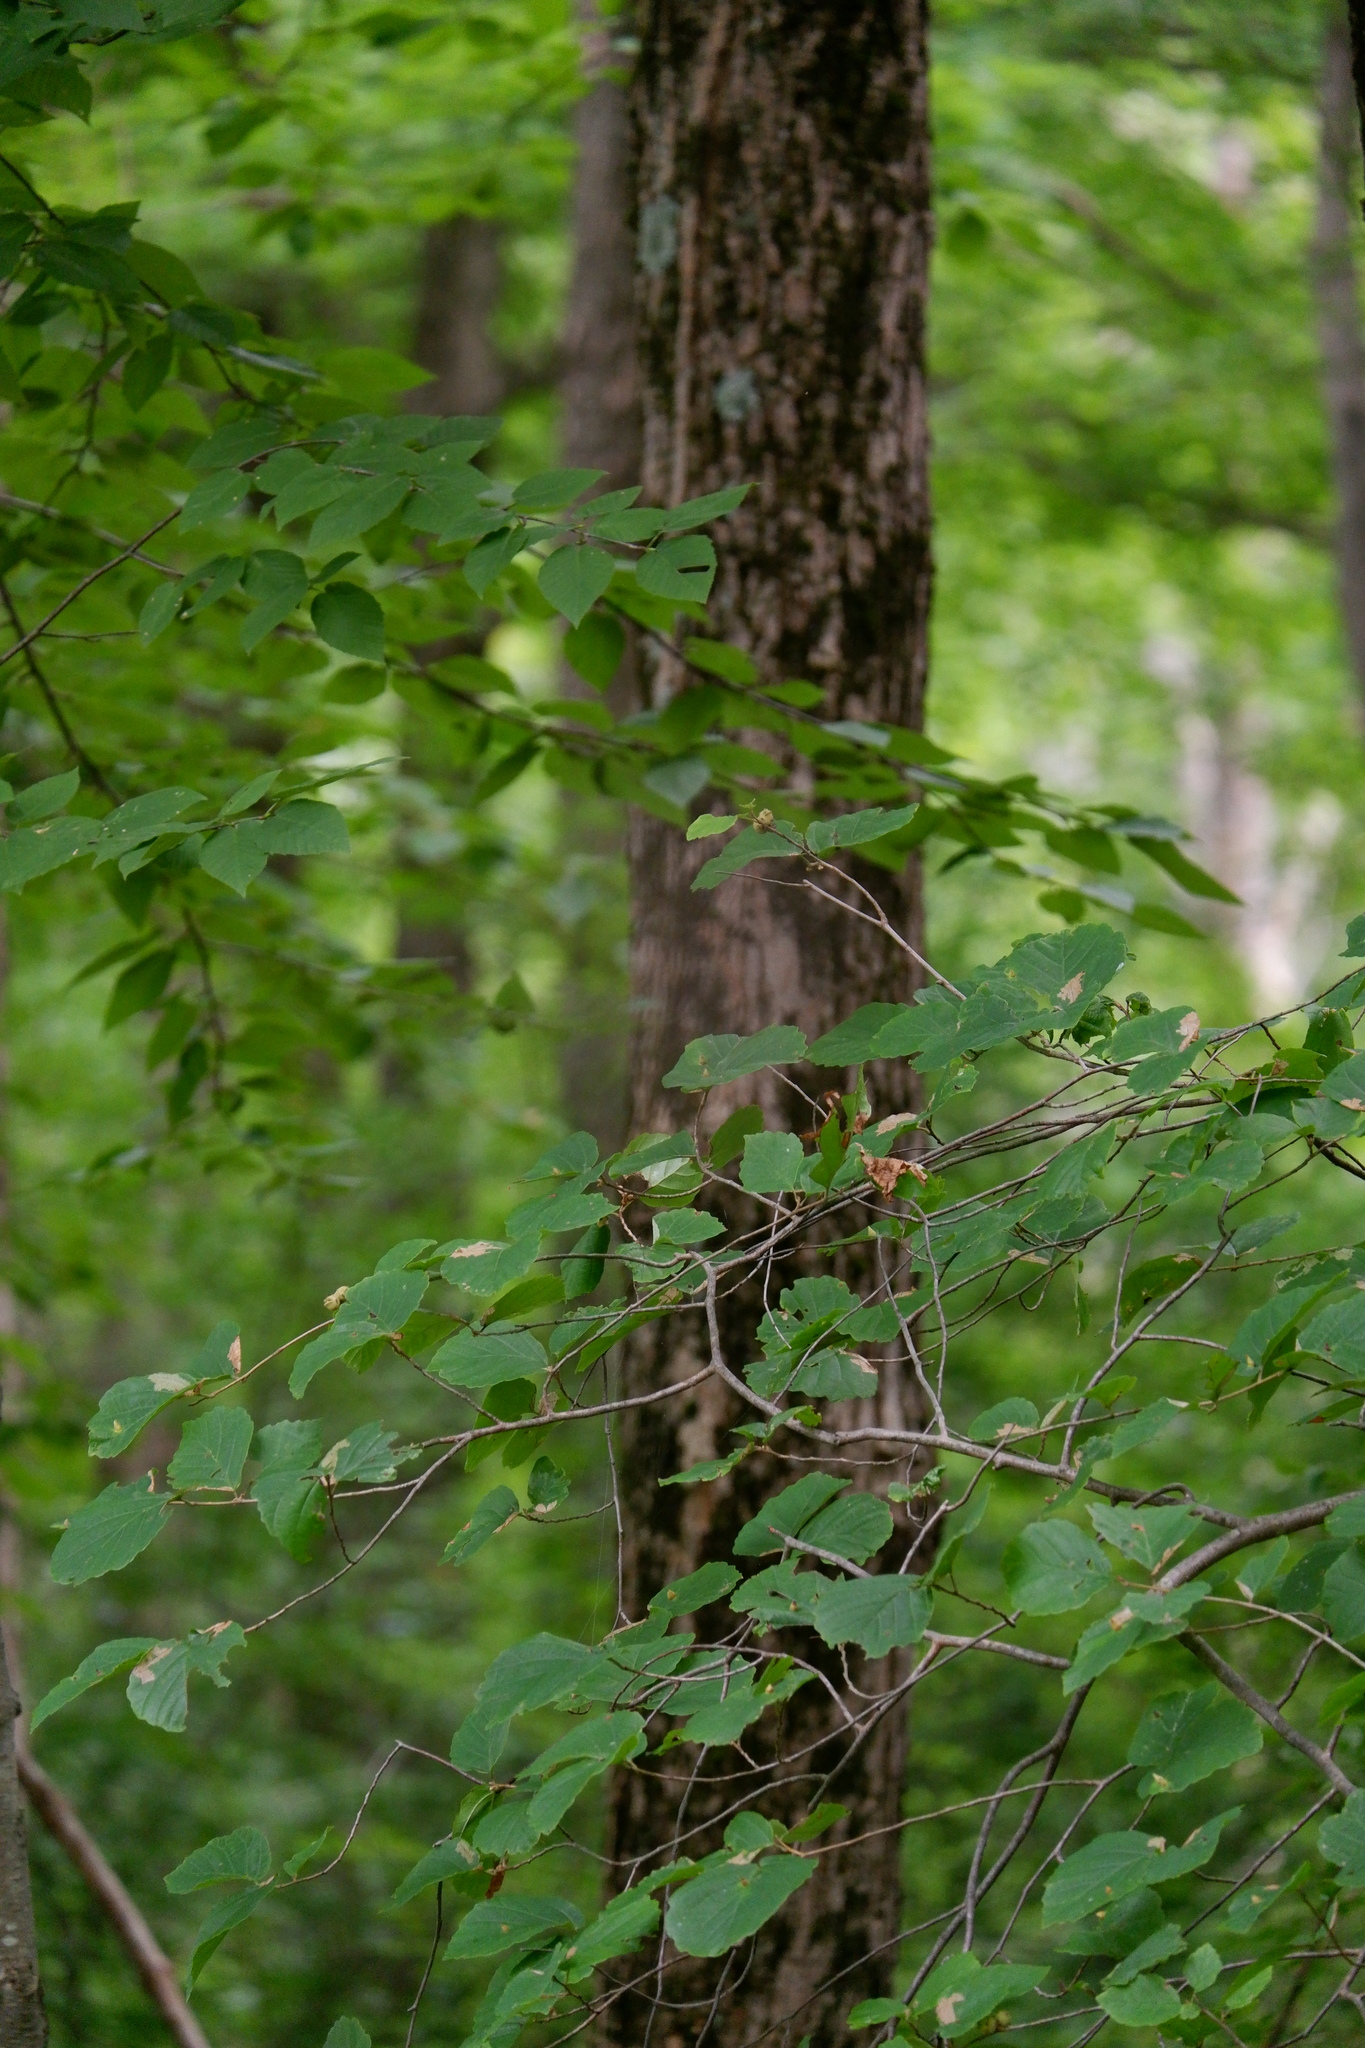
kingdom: Plantae
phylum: Tracheophyta
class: Magnoliopsida
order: Saxifragales
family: Hamamelidaceae
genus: Hamamelis
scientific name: Hamamelis virginiana
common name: Witch-hazel
